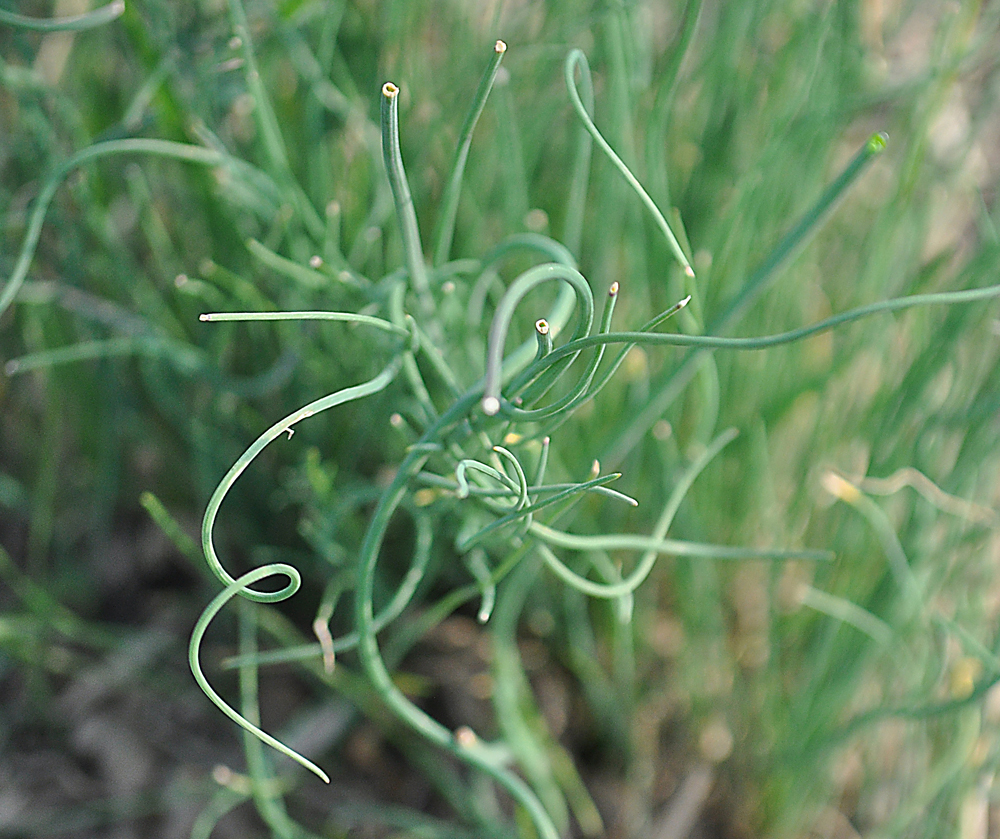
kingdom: Plantae
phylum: Tracheophyta
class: Liliopsida
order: Asparagales
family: Amaryllidaceae
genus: Allium
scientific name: Allium vineale
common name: Crow garlic
